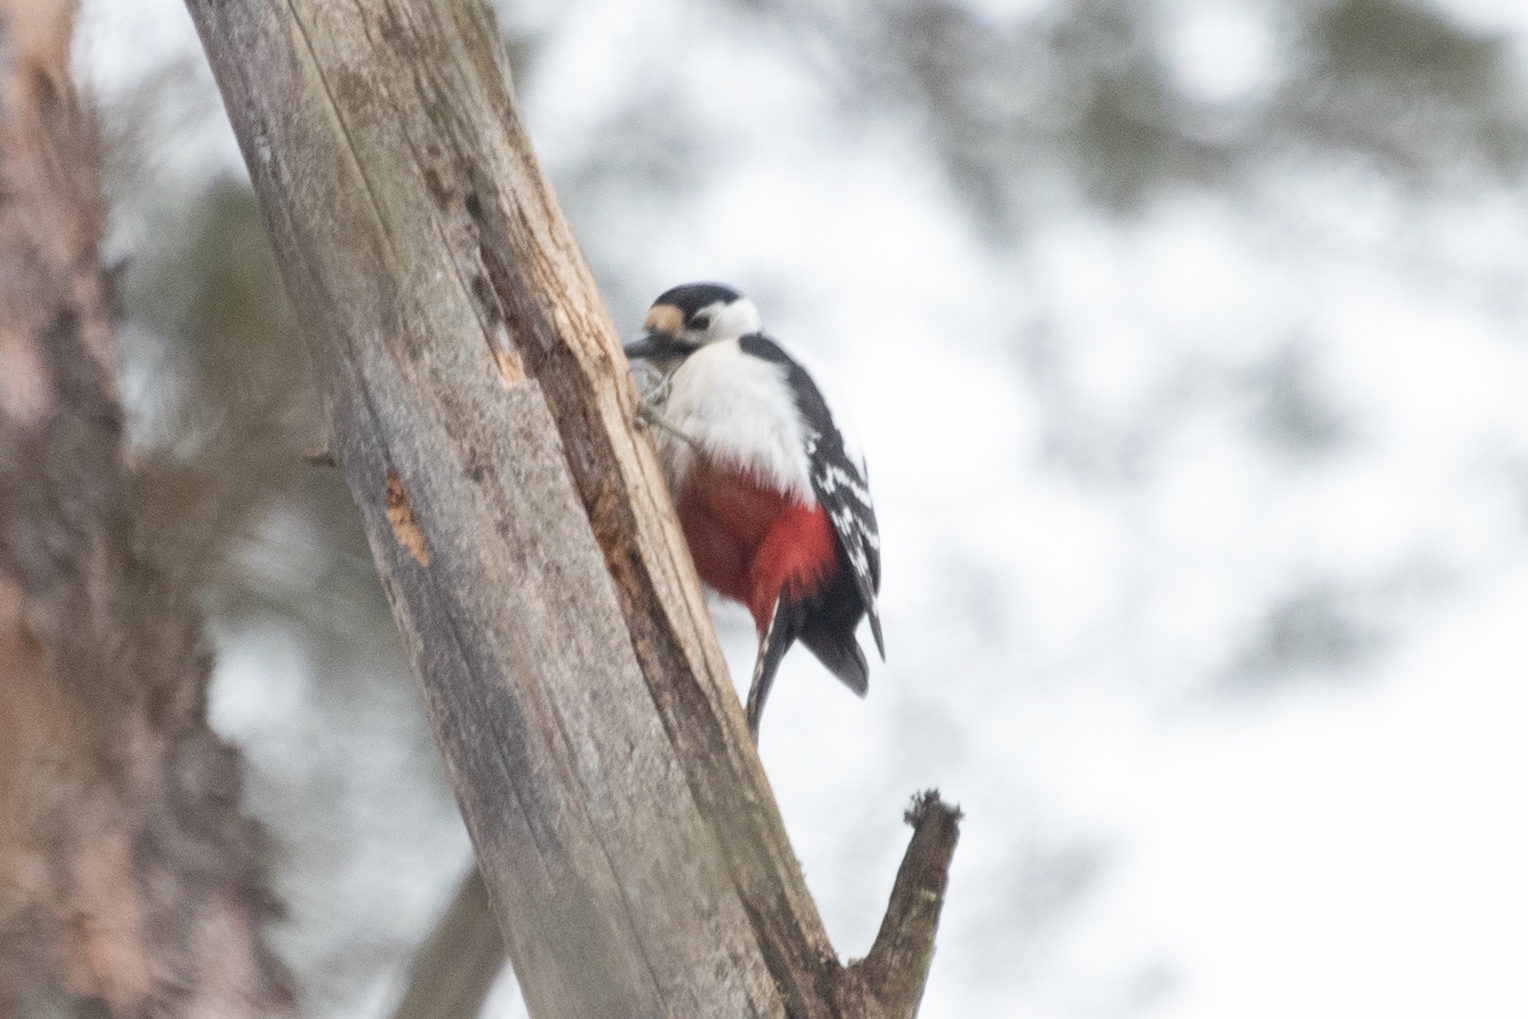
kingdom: Animalia
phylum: Chordata
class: Aves
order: Piciformes
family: Picidae
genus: Dendrocopos
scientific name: Dendrocopos major
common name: Great spotted woodpecker
